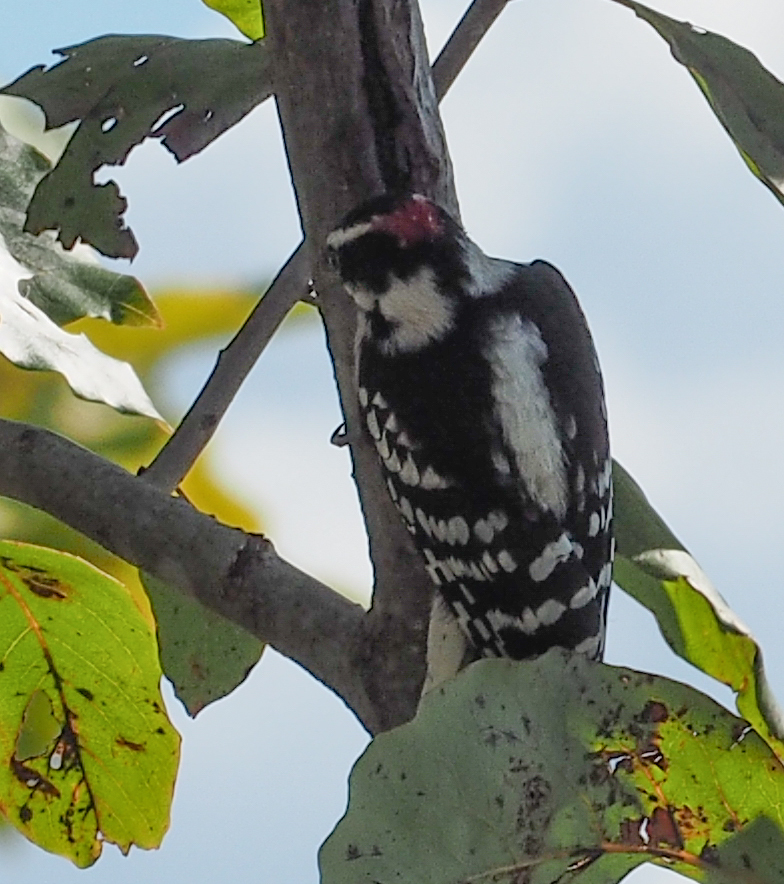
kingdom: Animalia
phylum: Chordata
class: Aves
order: Piciformes
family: Picidae
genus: Dryobates
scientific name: Dryobates pubescens
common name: Downy woodpecker
